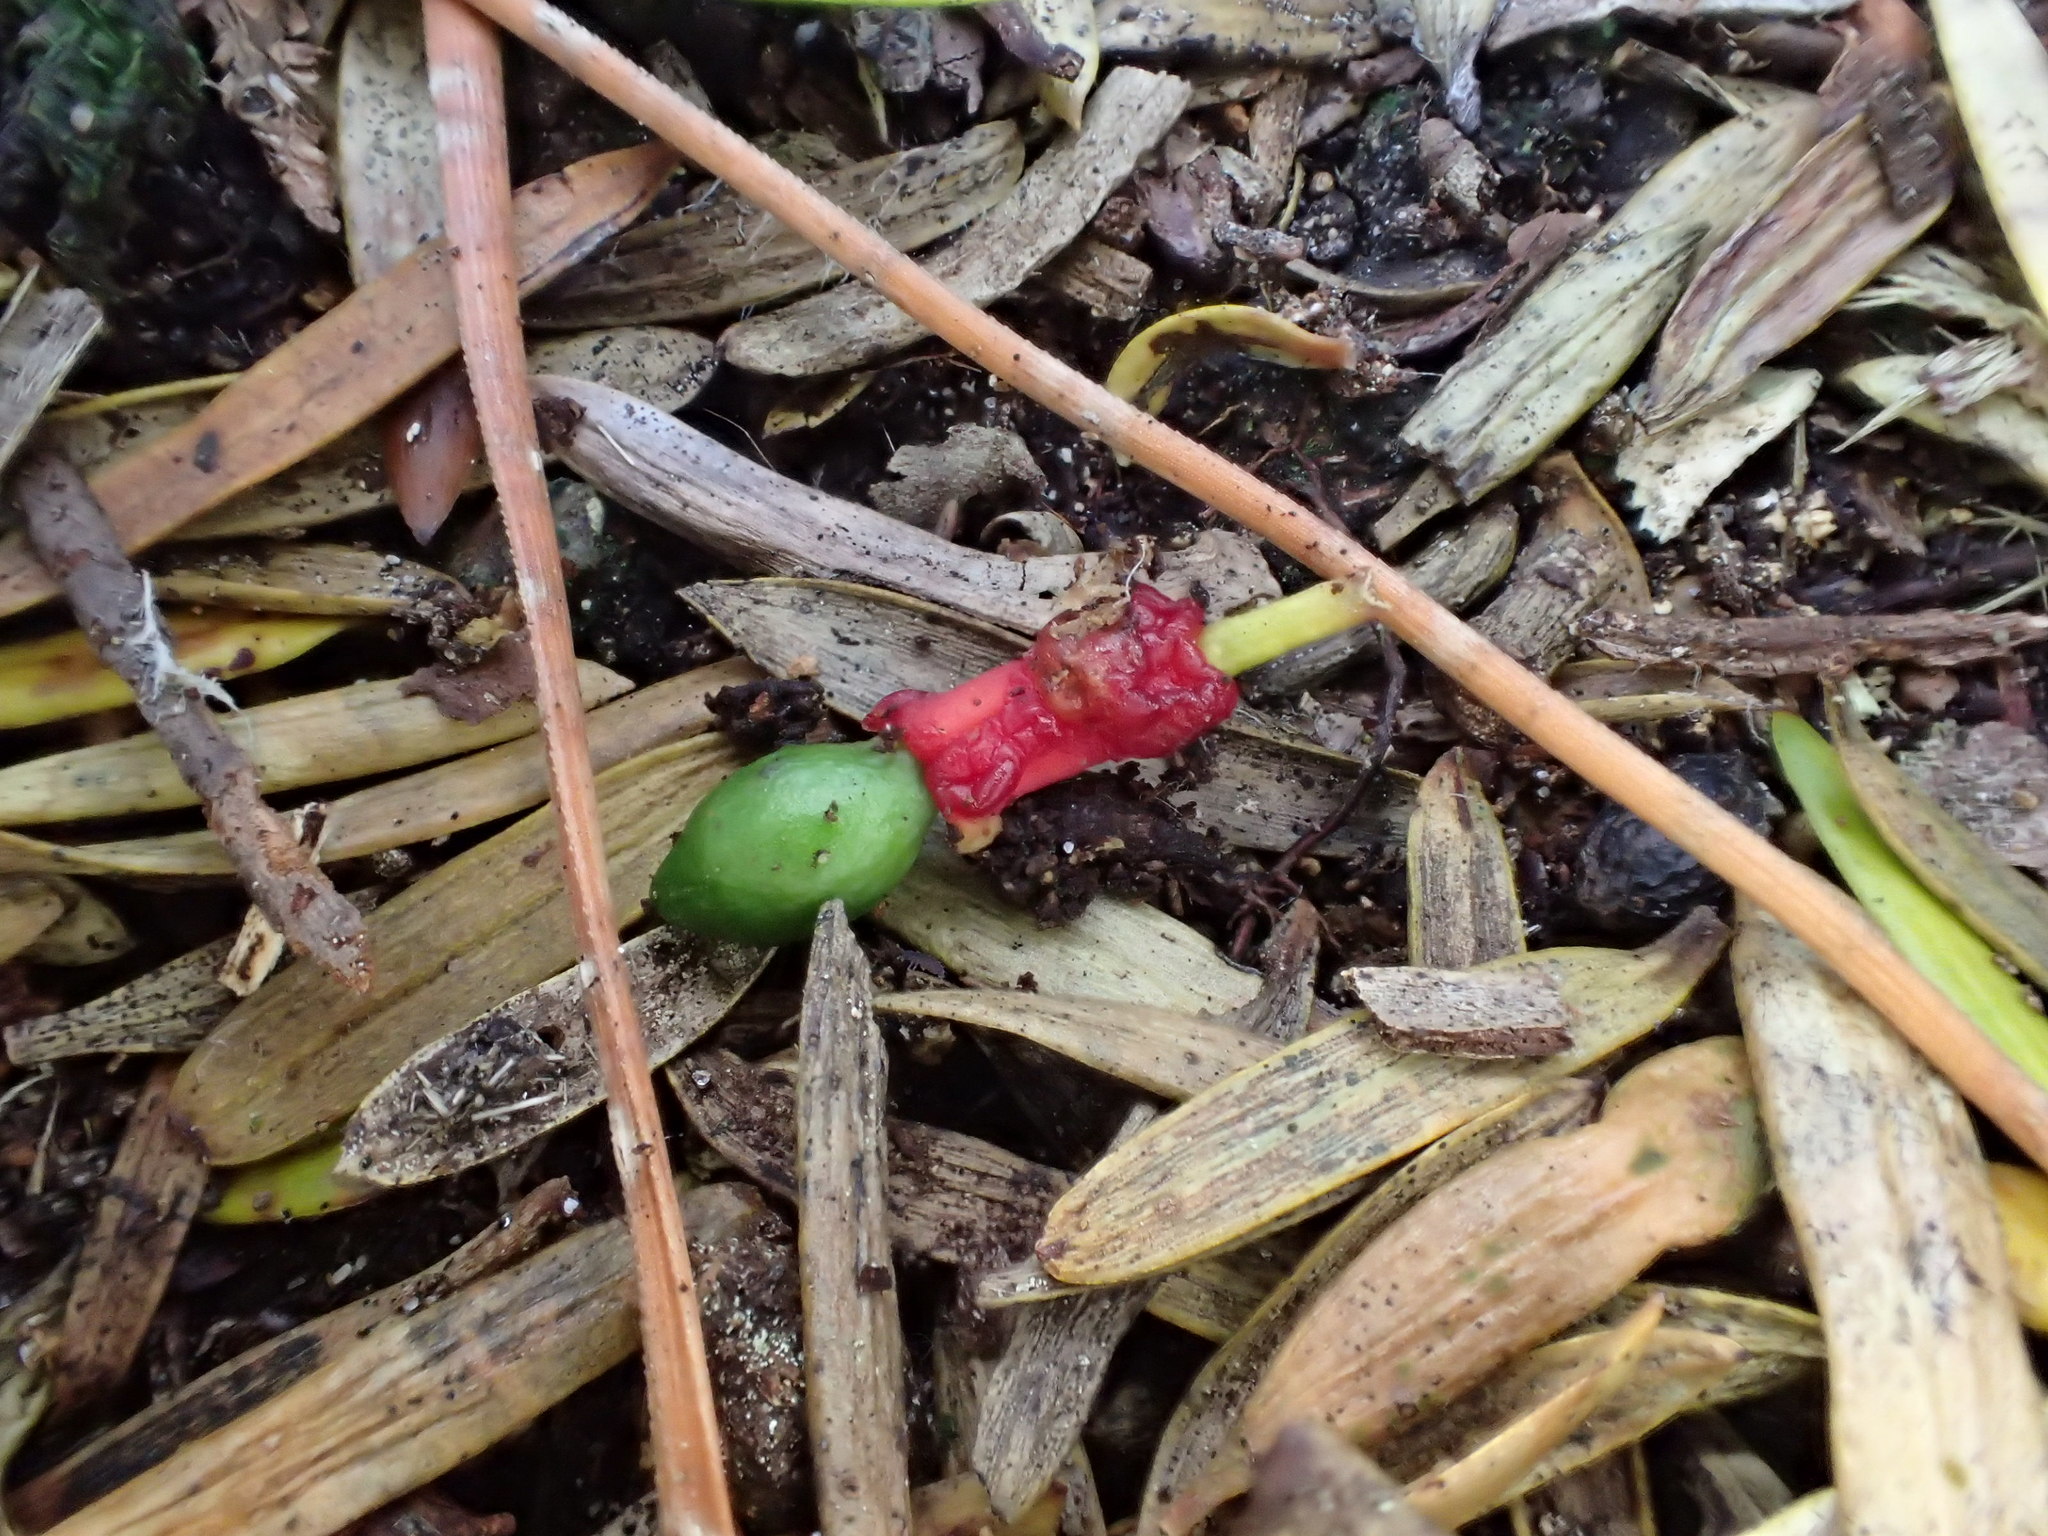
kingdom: Plantae
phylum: Tracheophyta
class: Pinopsida
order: Pinales
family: Podocarpaceae
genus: Podocarpus
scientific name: Podocarpus totara
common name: Totara
